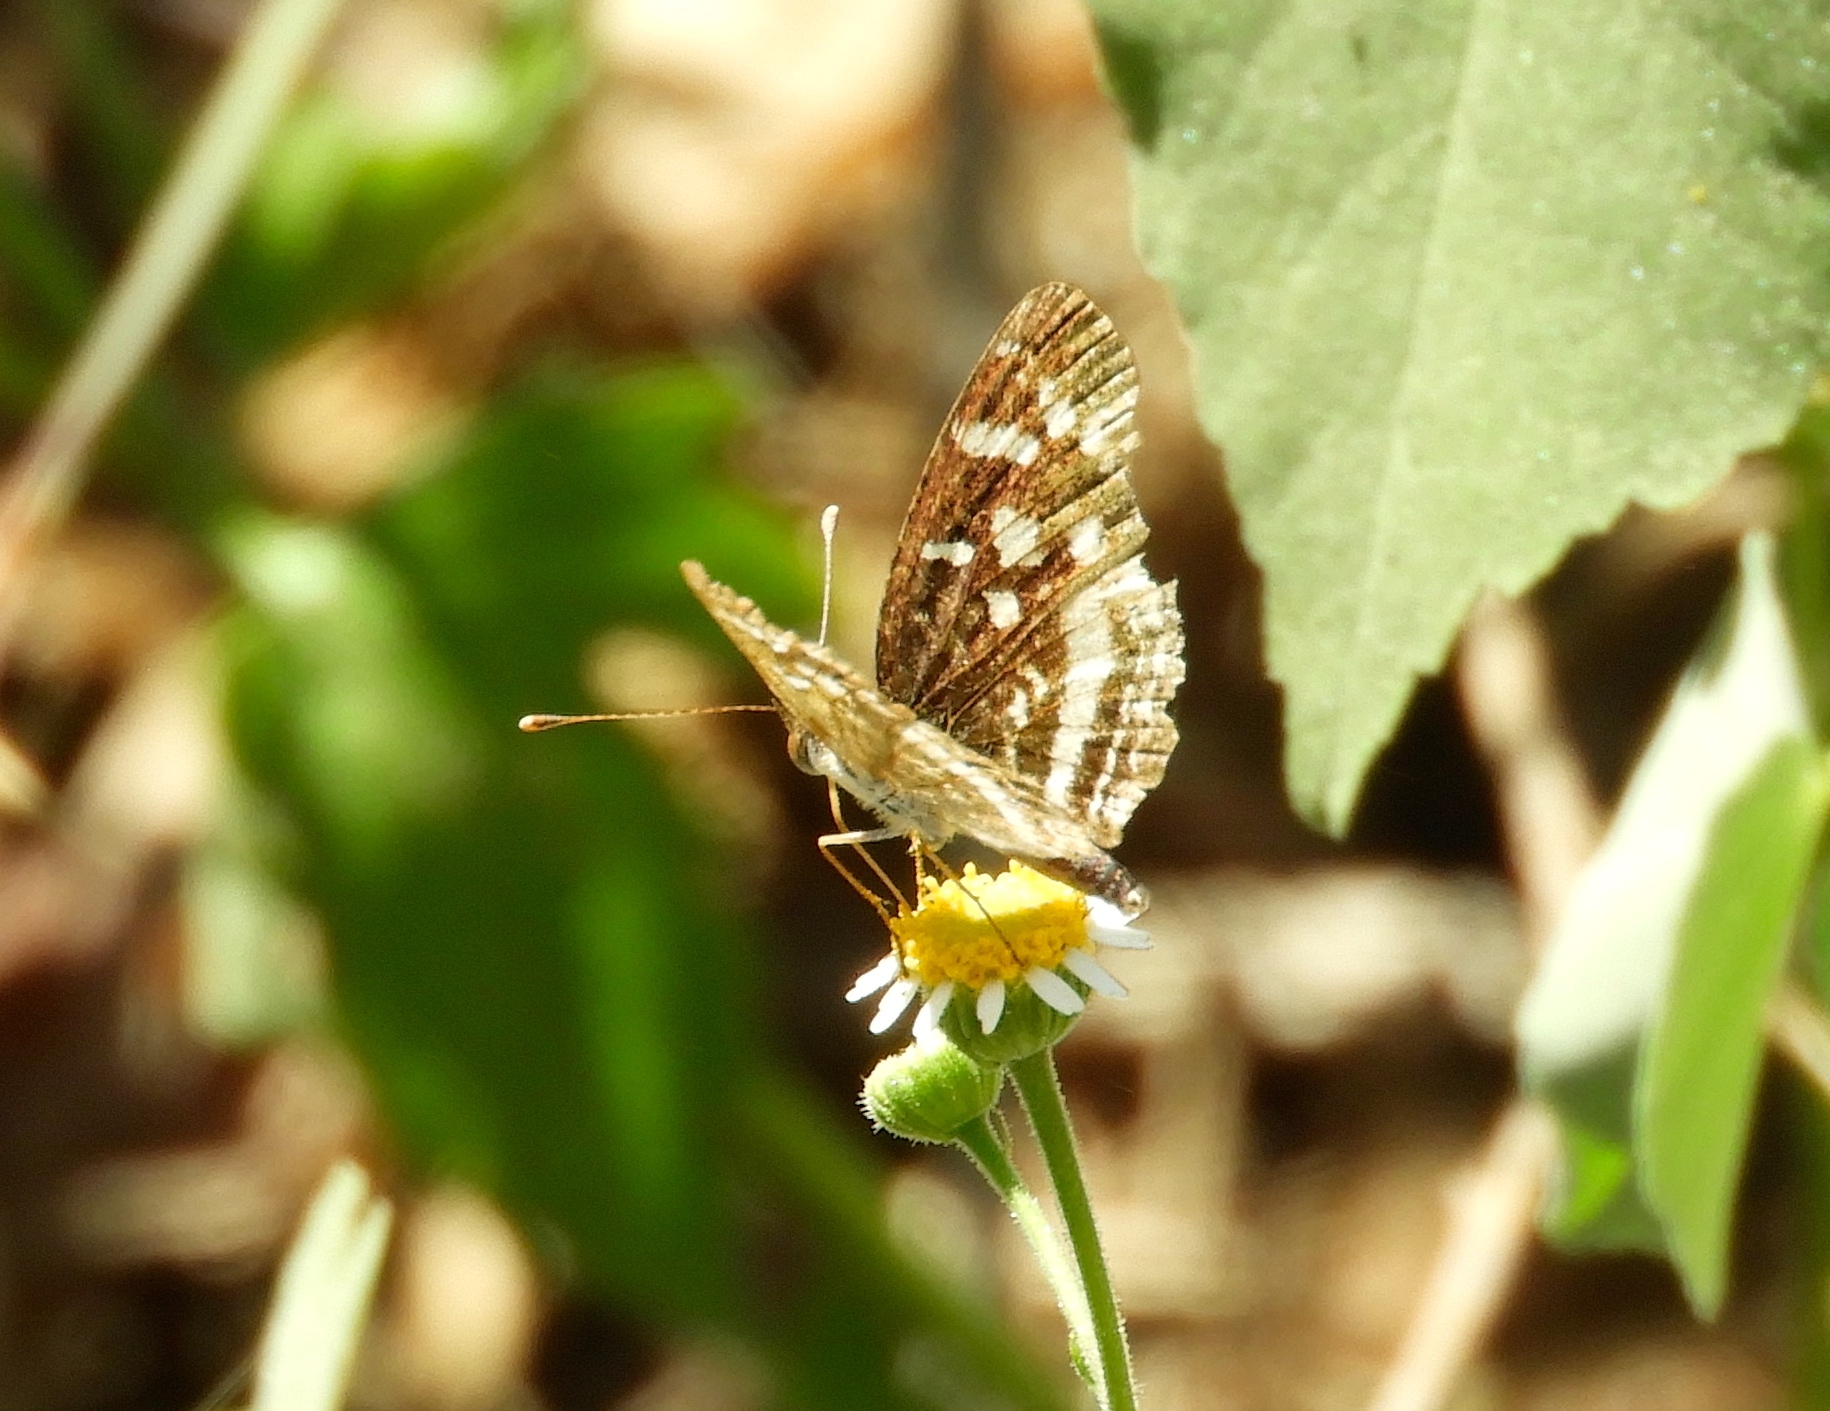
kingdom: Animalia
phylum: Arthropoda
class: Insecta
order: Lepidoptera
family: Nymphalidae
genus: Anthanassa
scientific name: Anthanassa tulcis
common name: Pale-banded crescent
